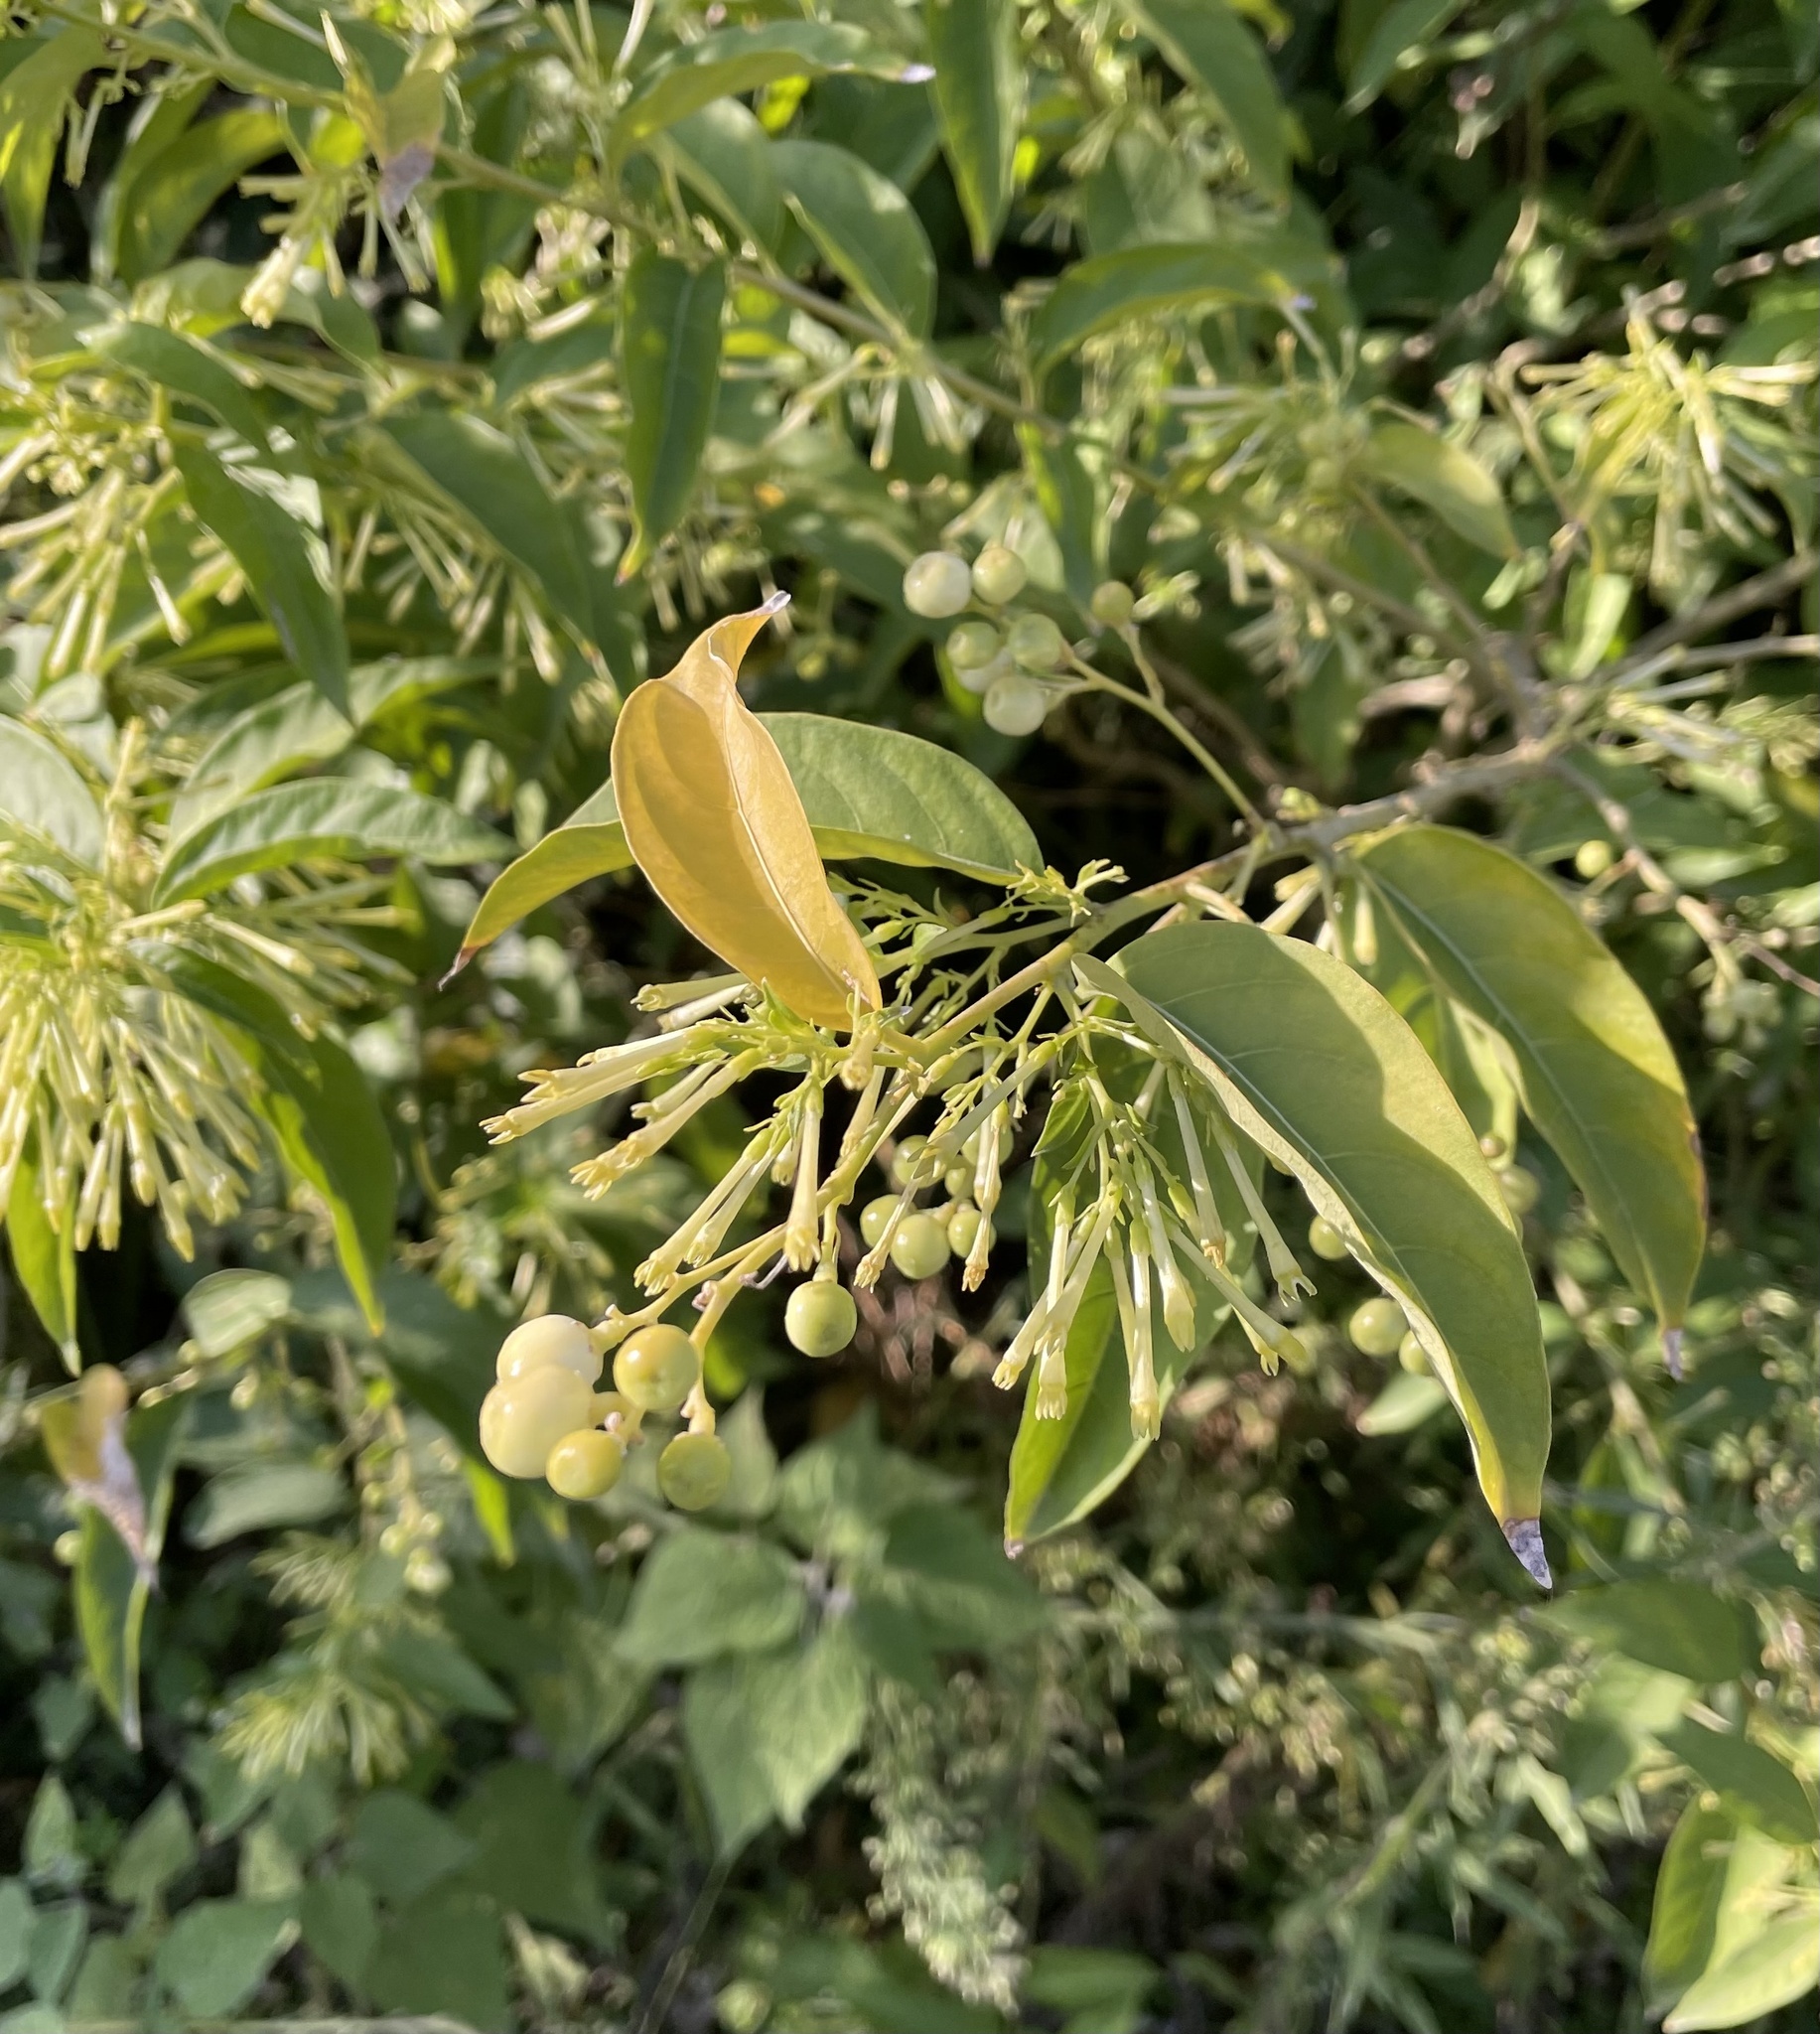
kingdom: Plantae
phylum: Tracheophyta
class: Magnoliopsida
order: Solanales
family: Solanaceae
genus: Cestrum
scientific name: Cestrum nocturnum
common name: Night jessamine
